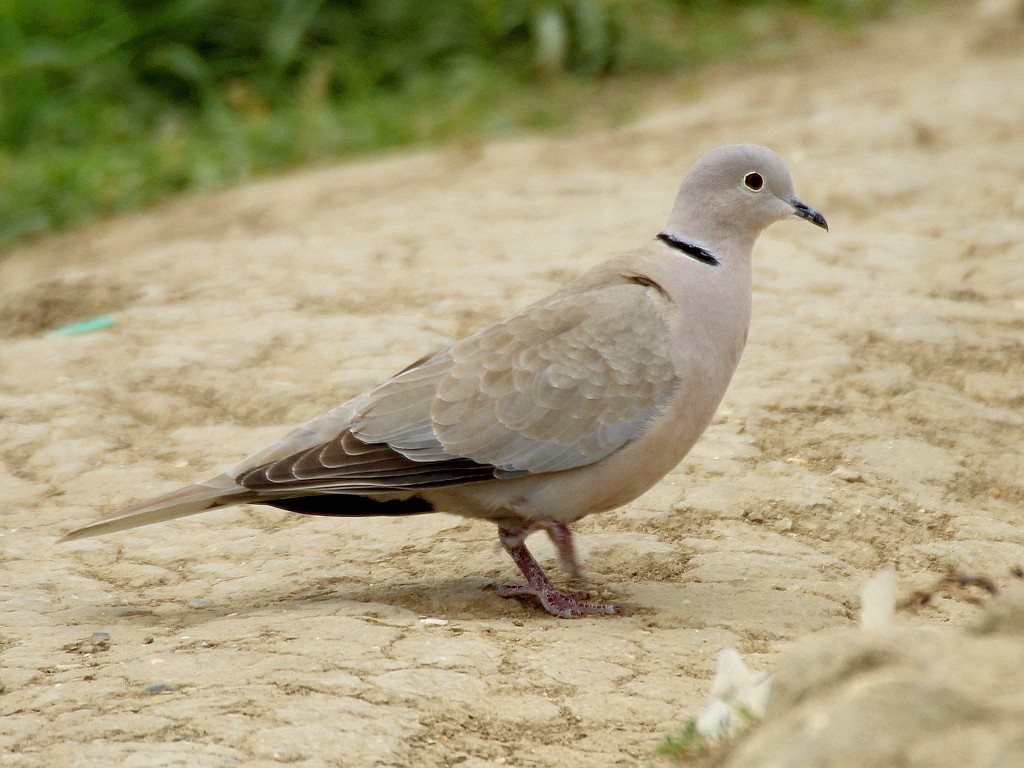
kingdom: Animalia
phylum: Chordata
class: Aves
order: Columbiformes
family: Columbidae
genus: Streptopelia
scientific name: Streptopelia decaocto
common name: Eurasian collared dove
